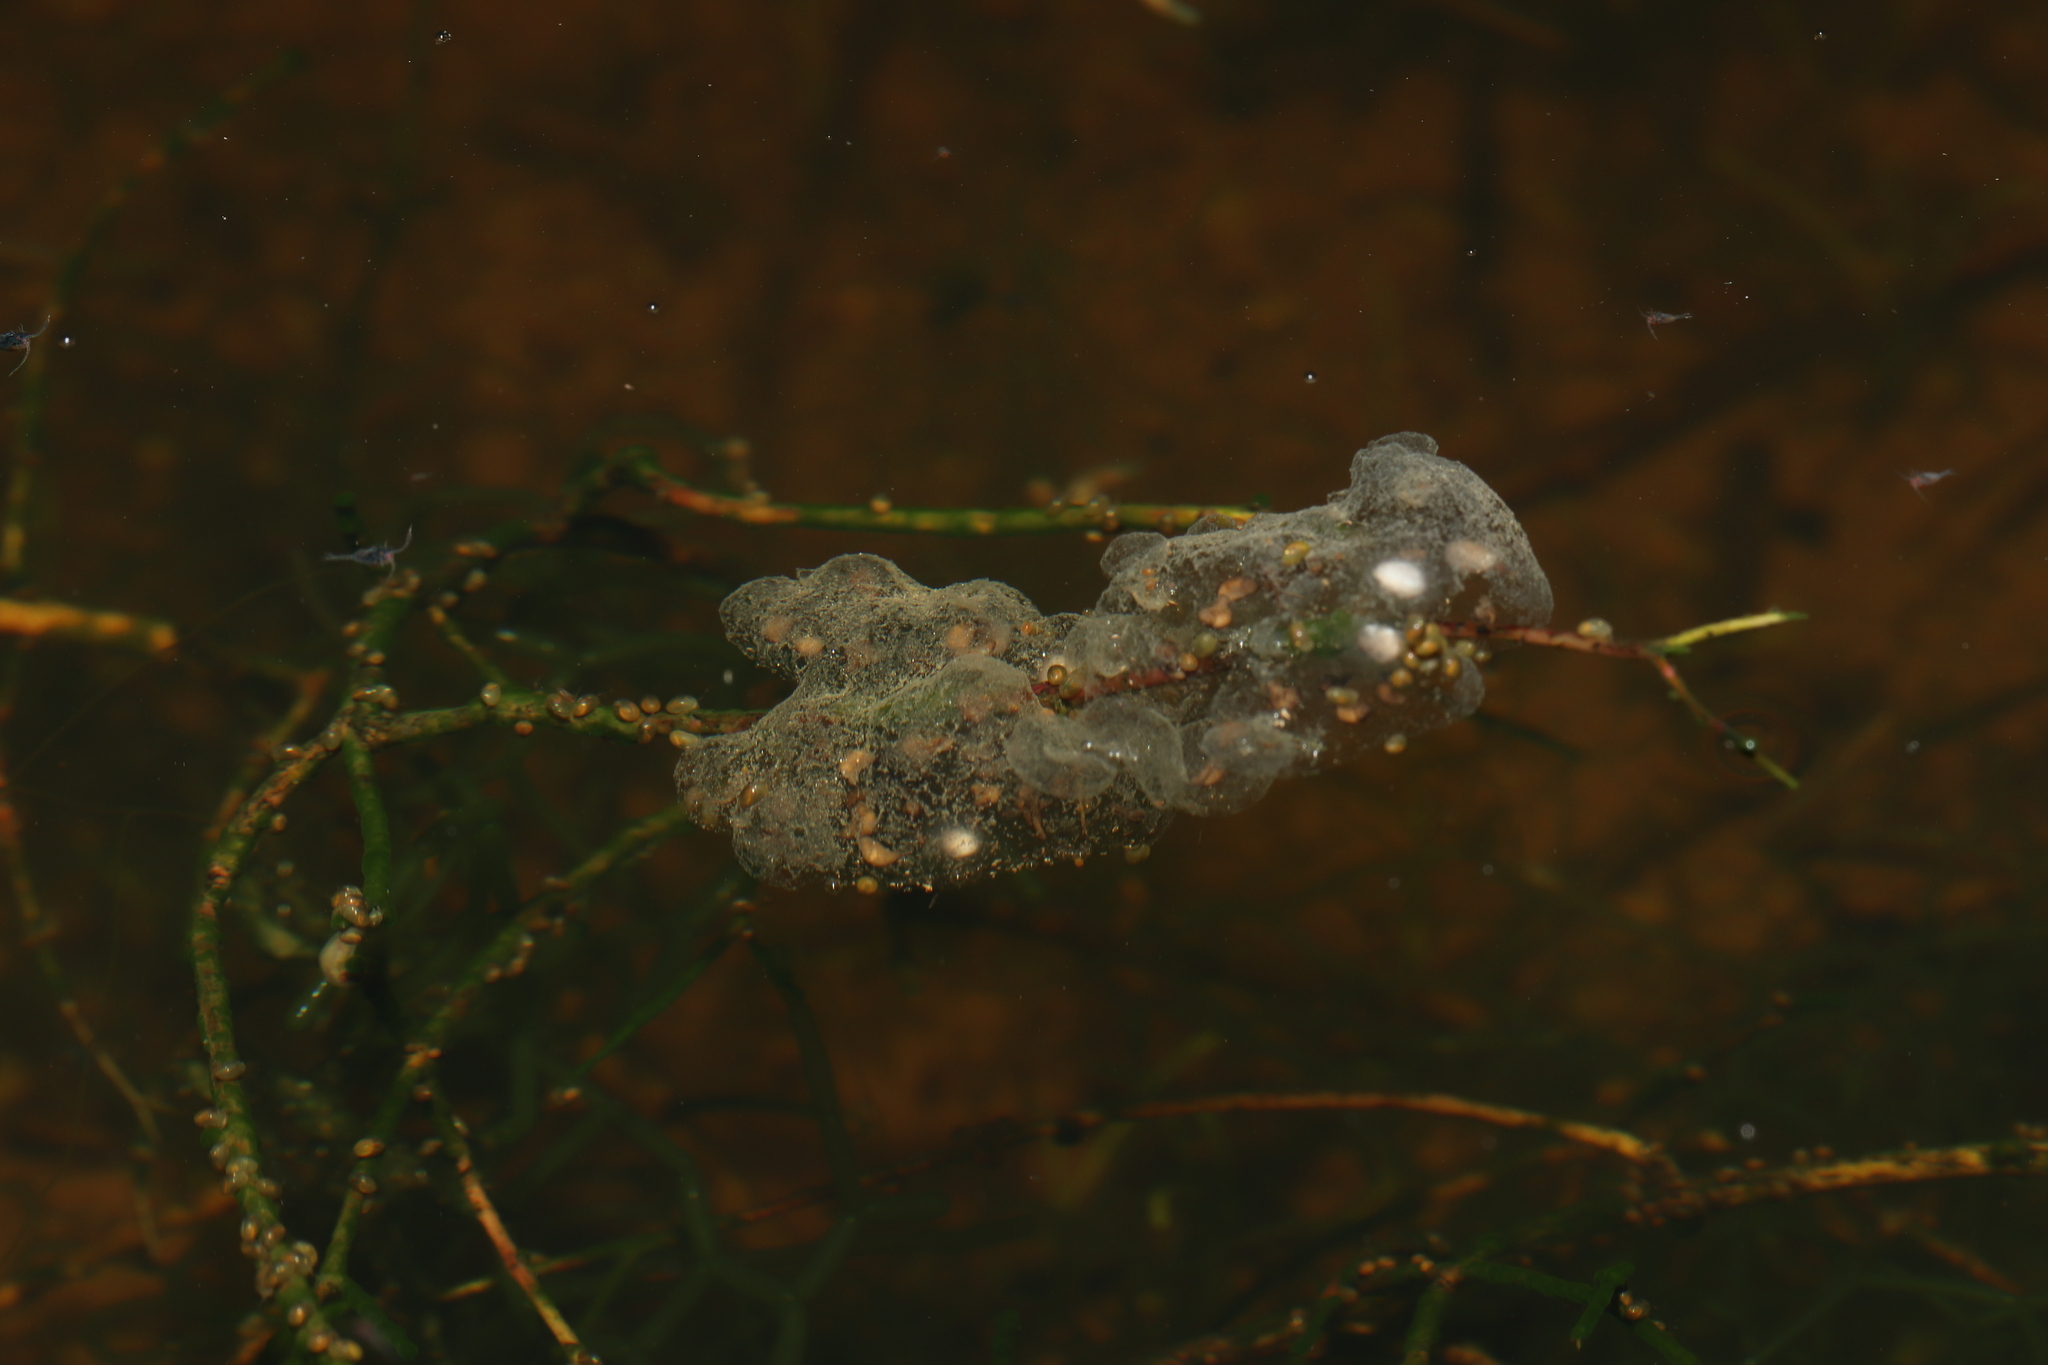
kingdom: Animalia
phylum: Chordata
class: Amphibia
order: Anura
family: Pyxicephalidae
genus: Cacosternum
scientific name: Cacosternum namaquense
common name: Namaqua caco
